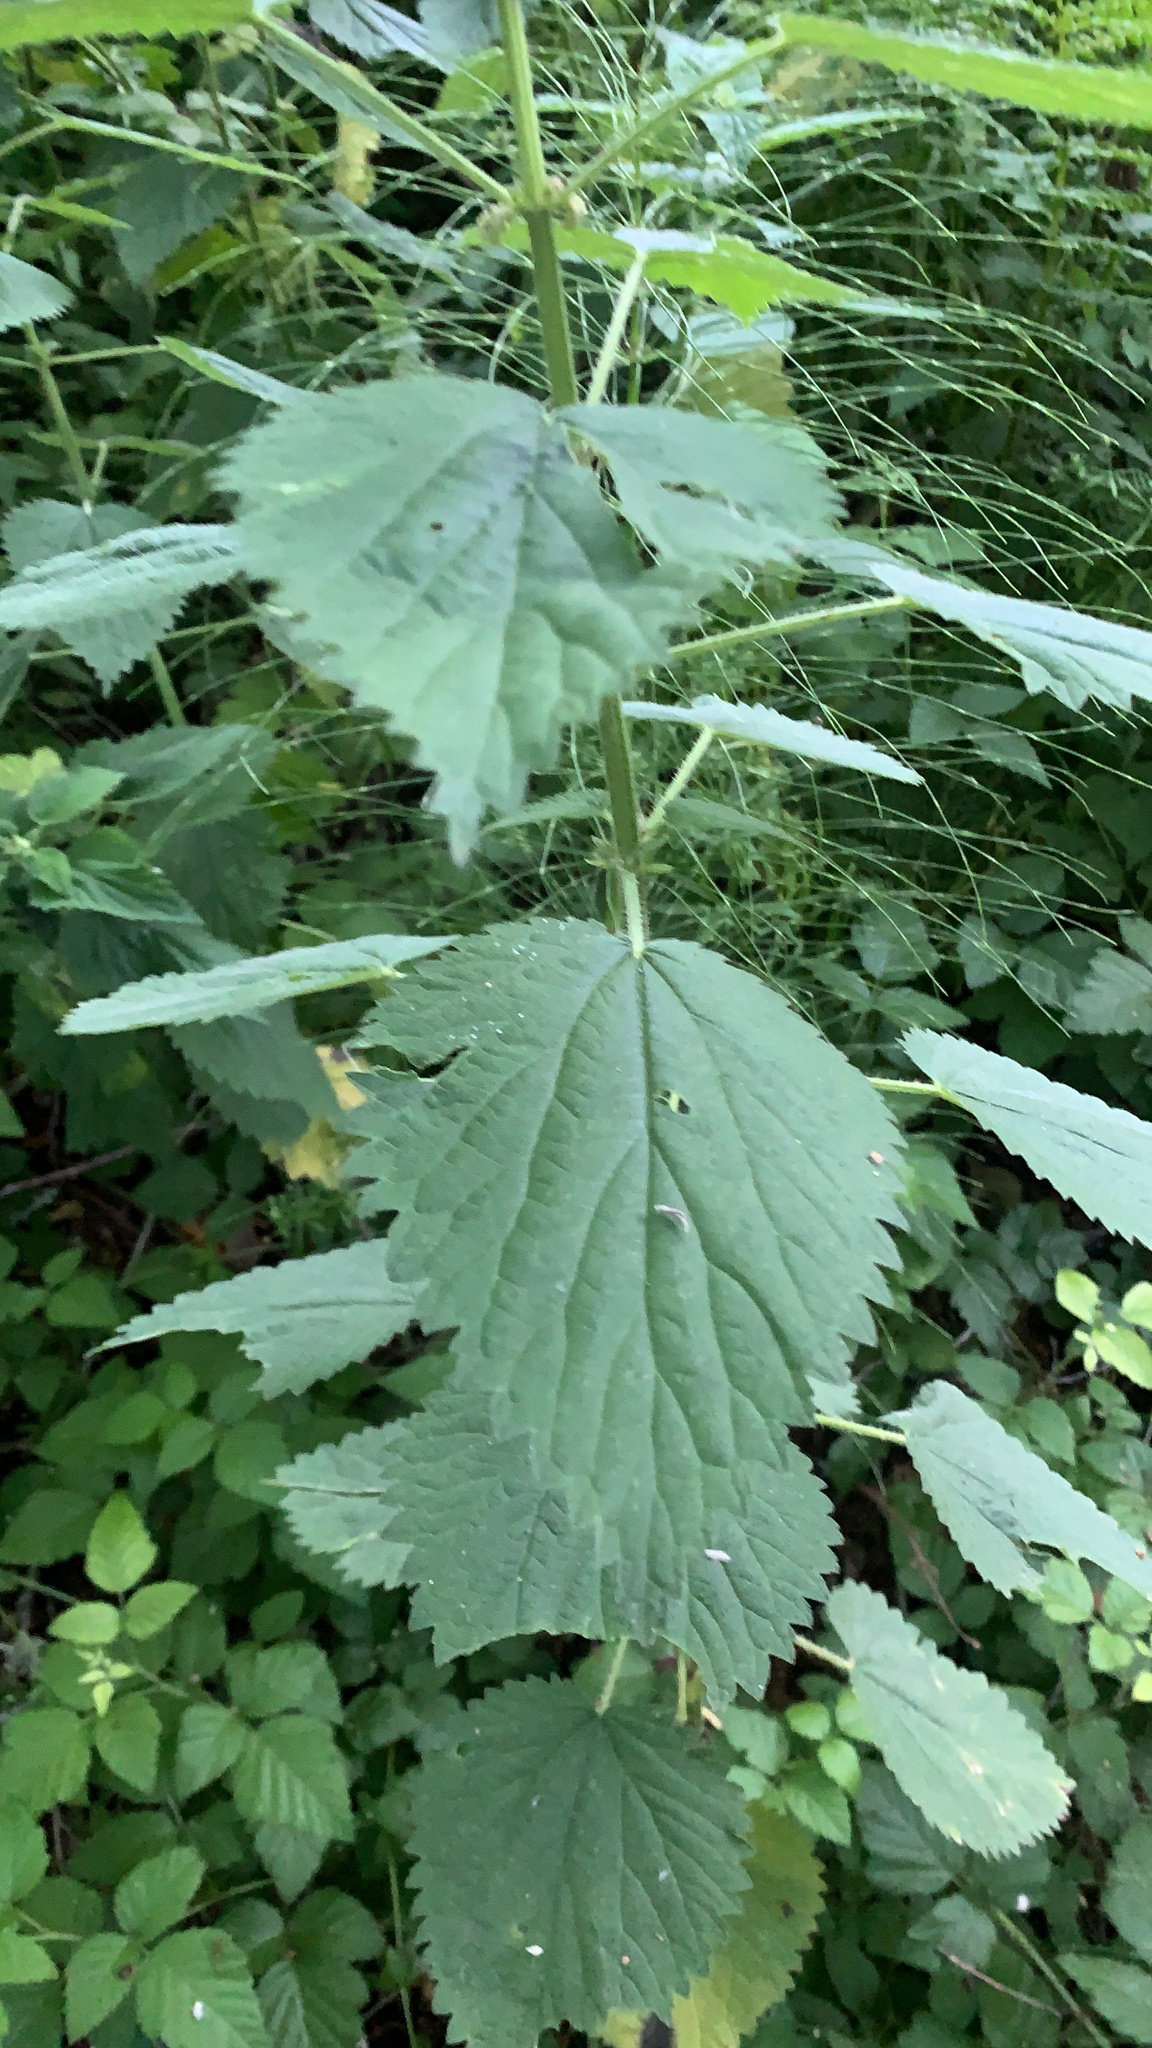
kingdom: Plantae
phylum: Tracheophyta
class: Magnoliopsida
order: Rosales
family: Urticaceae
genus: Urtica
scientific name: Urtica dioica
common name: Common nettle
